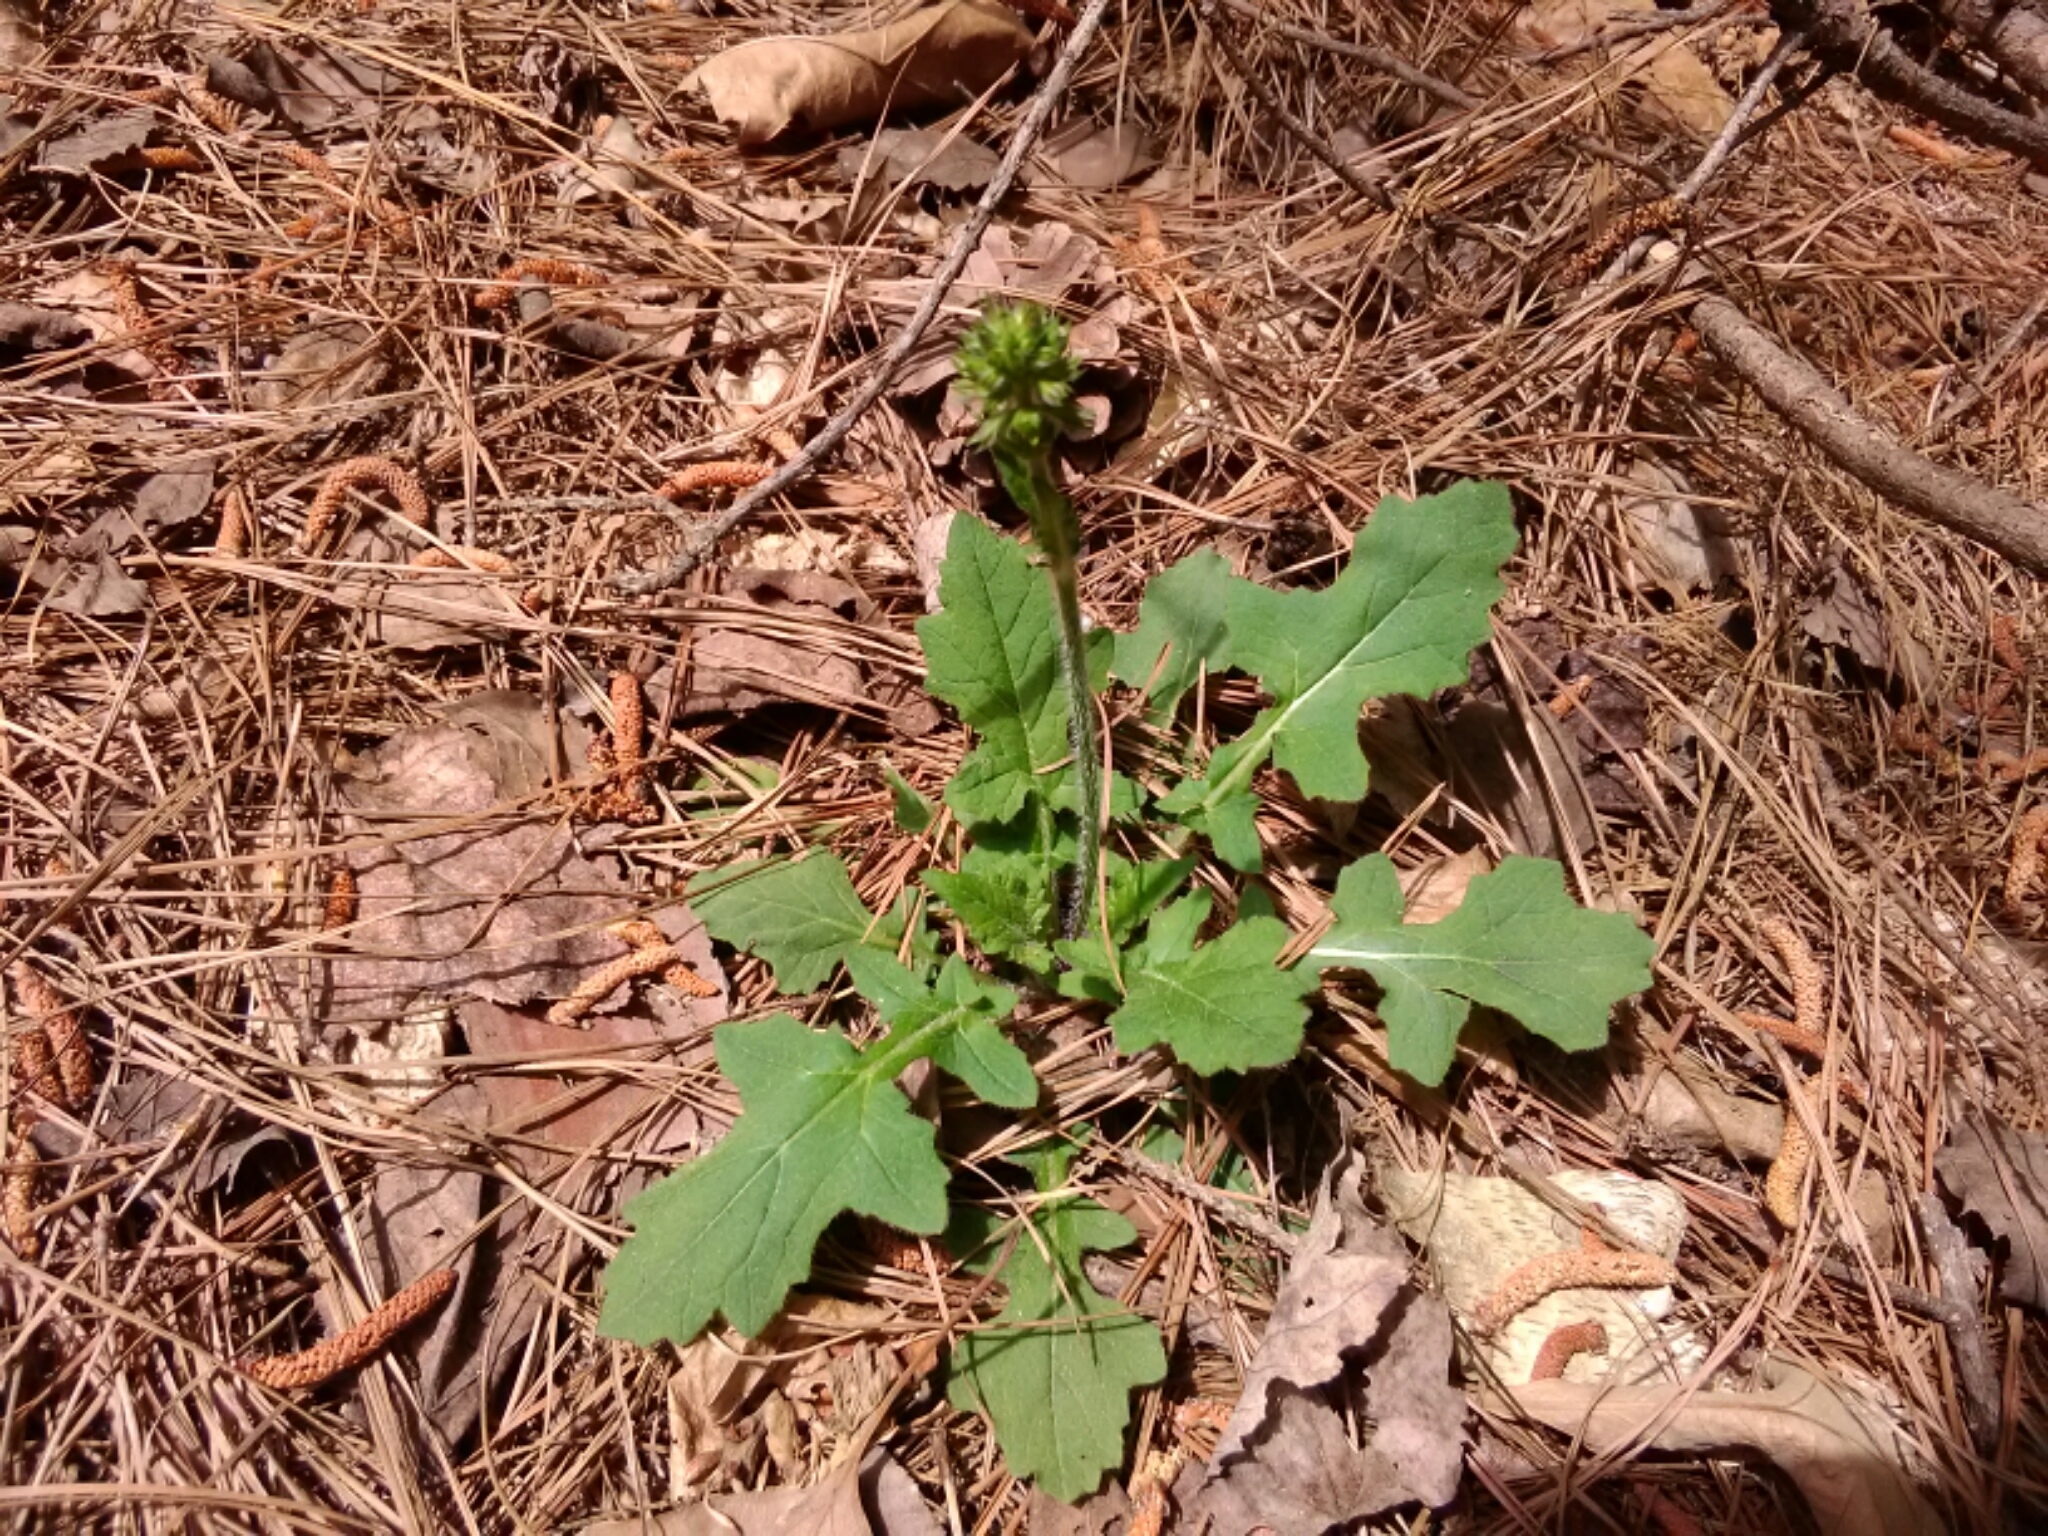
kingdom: Plantae
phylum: Tracheophyta
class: Magnoliopsida
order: Lamiales
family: Lamiaceae
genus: Salvia
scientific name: Salvia lyrata
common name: Cancerweed
